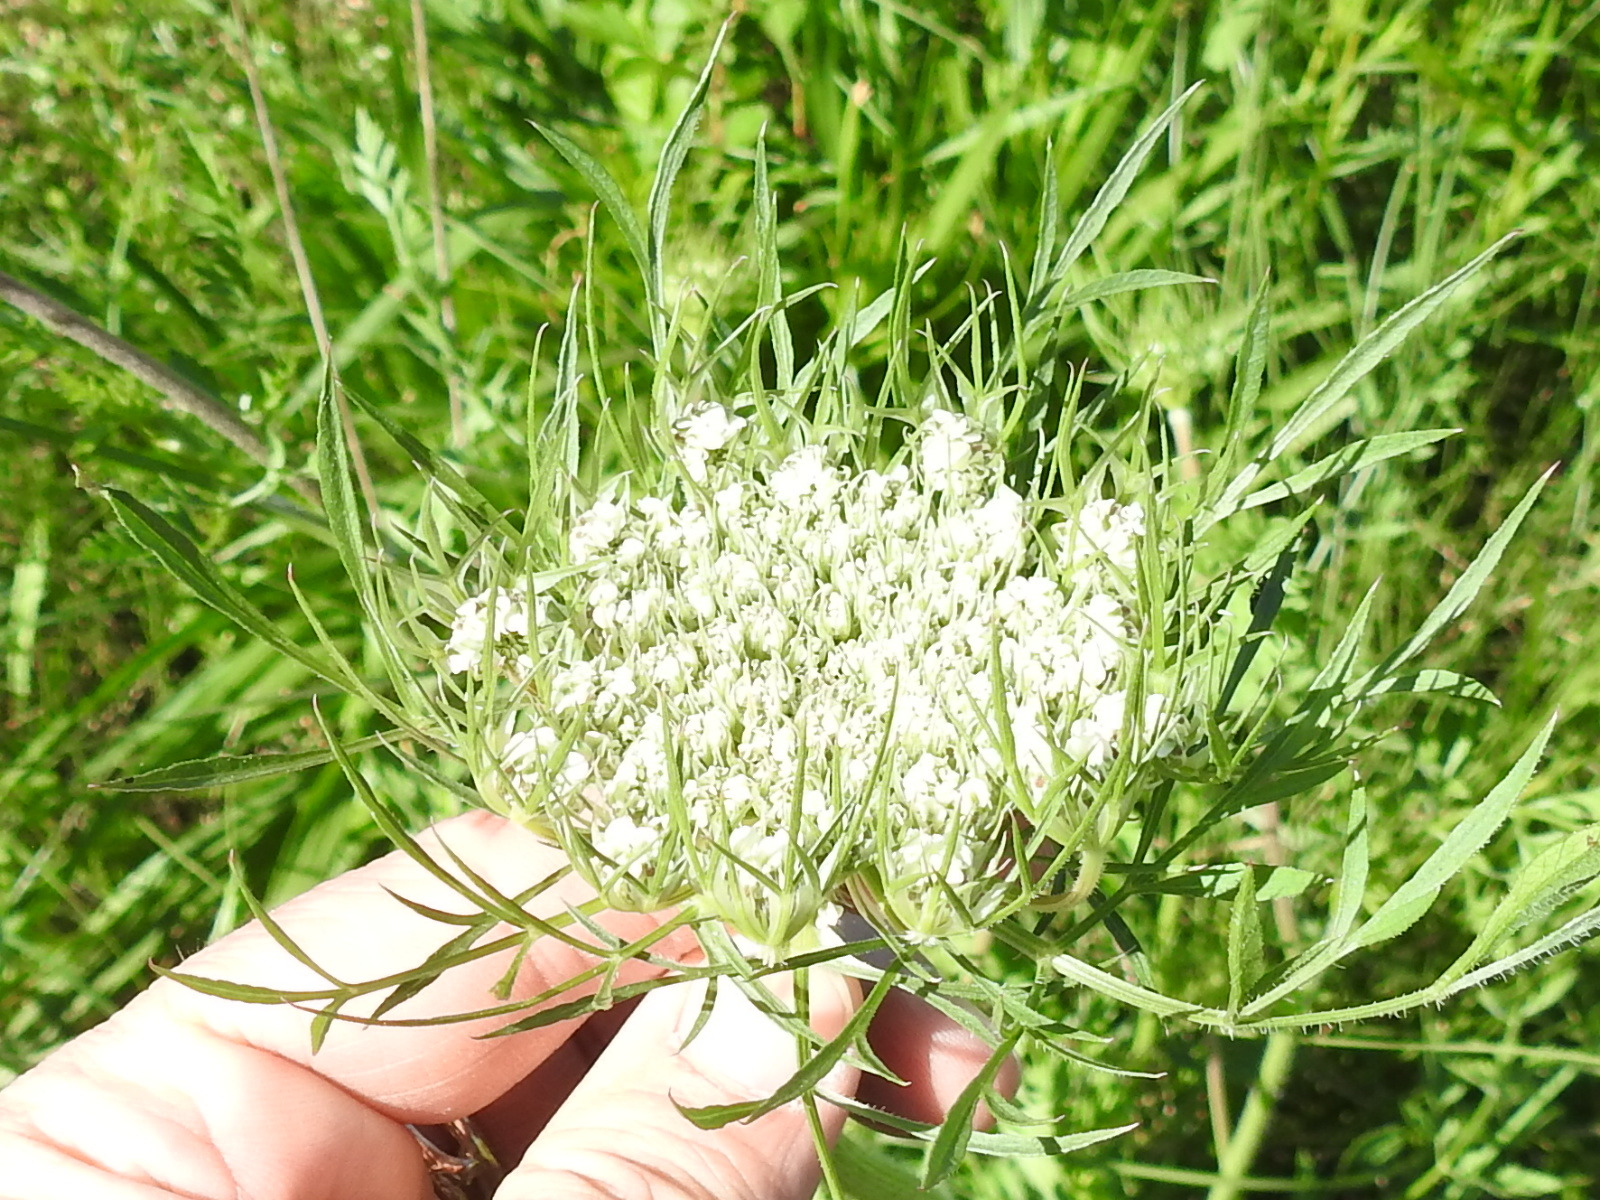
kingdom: Plantae
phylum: Tracheophyta
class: Magnoliopsida
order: Apiales
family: Apiaceae
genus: Daucus
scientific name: Daucus carota
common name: Wild carrot
